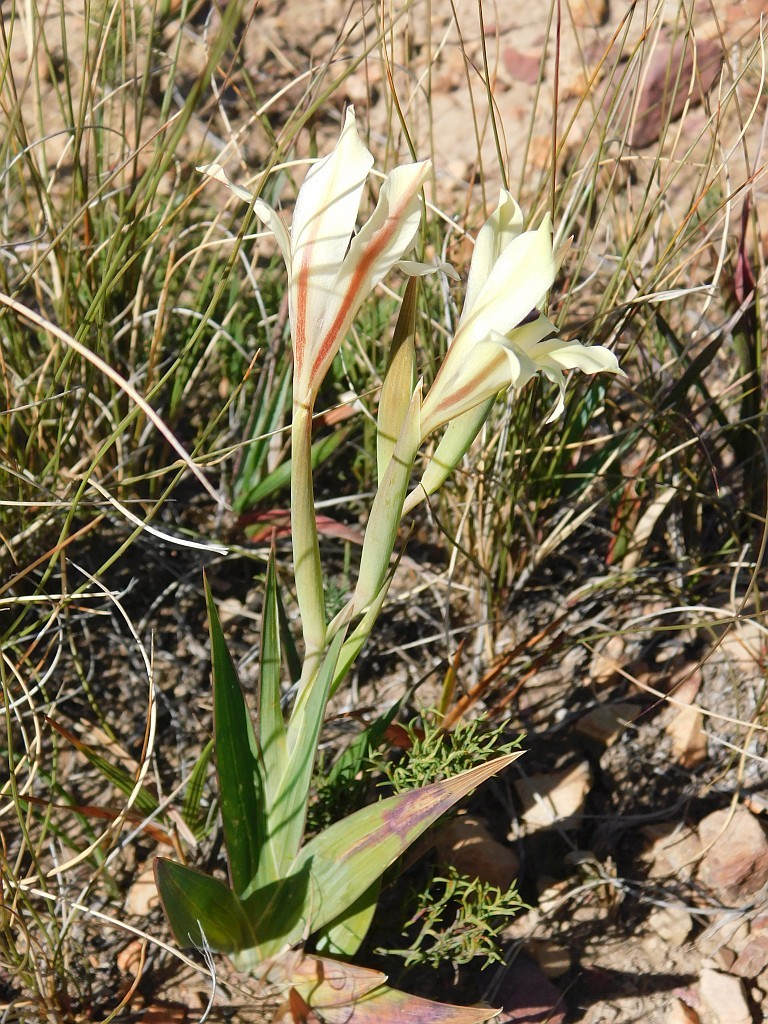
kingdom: Plantae
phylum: Tracheophyta
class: Liliopsida
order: Asparagales
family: Iridaceae
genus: Gladiolus
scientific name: Gladiolus floribundus
